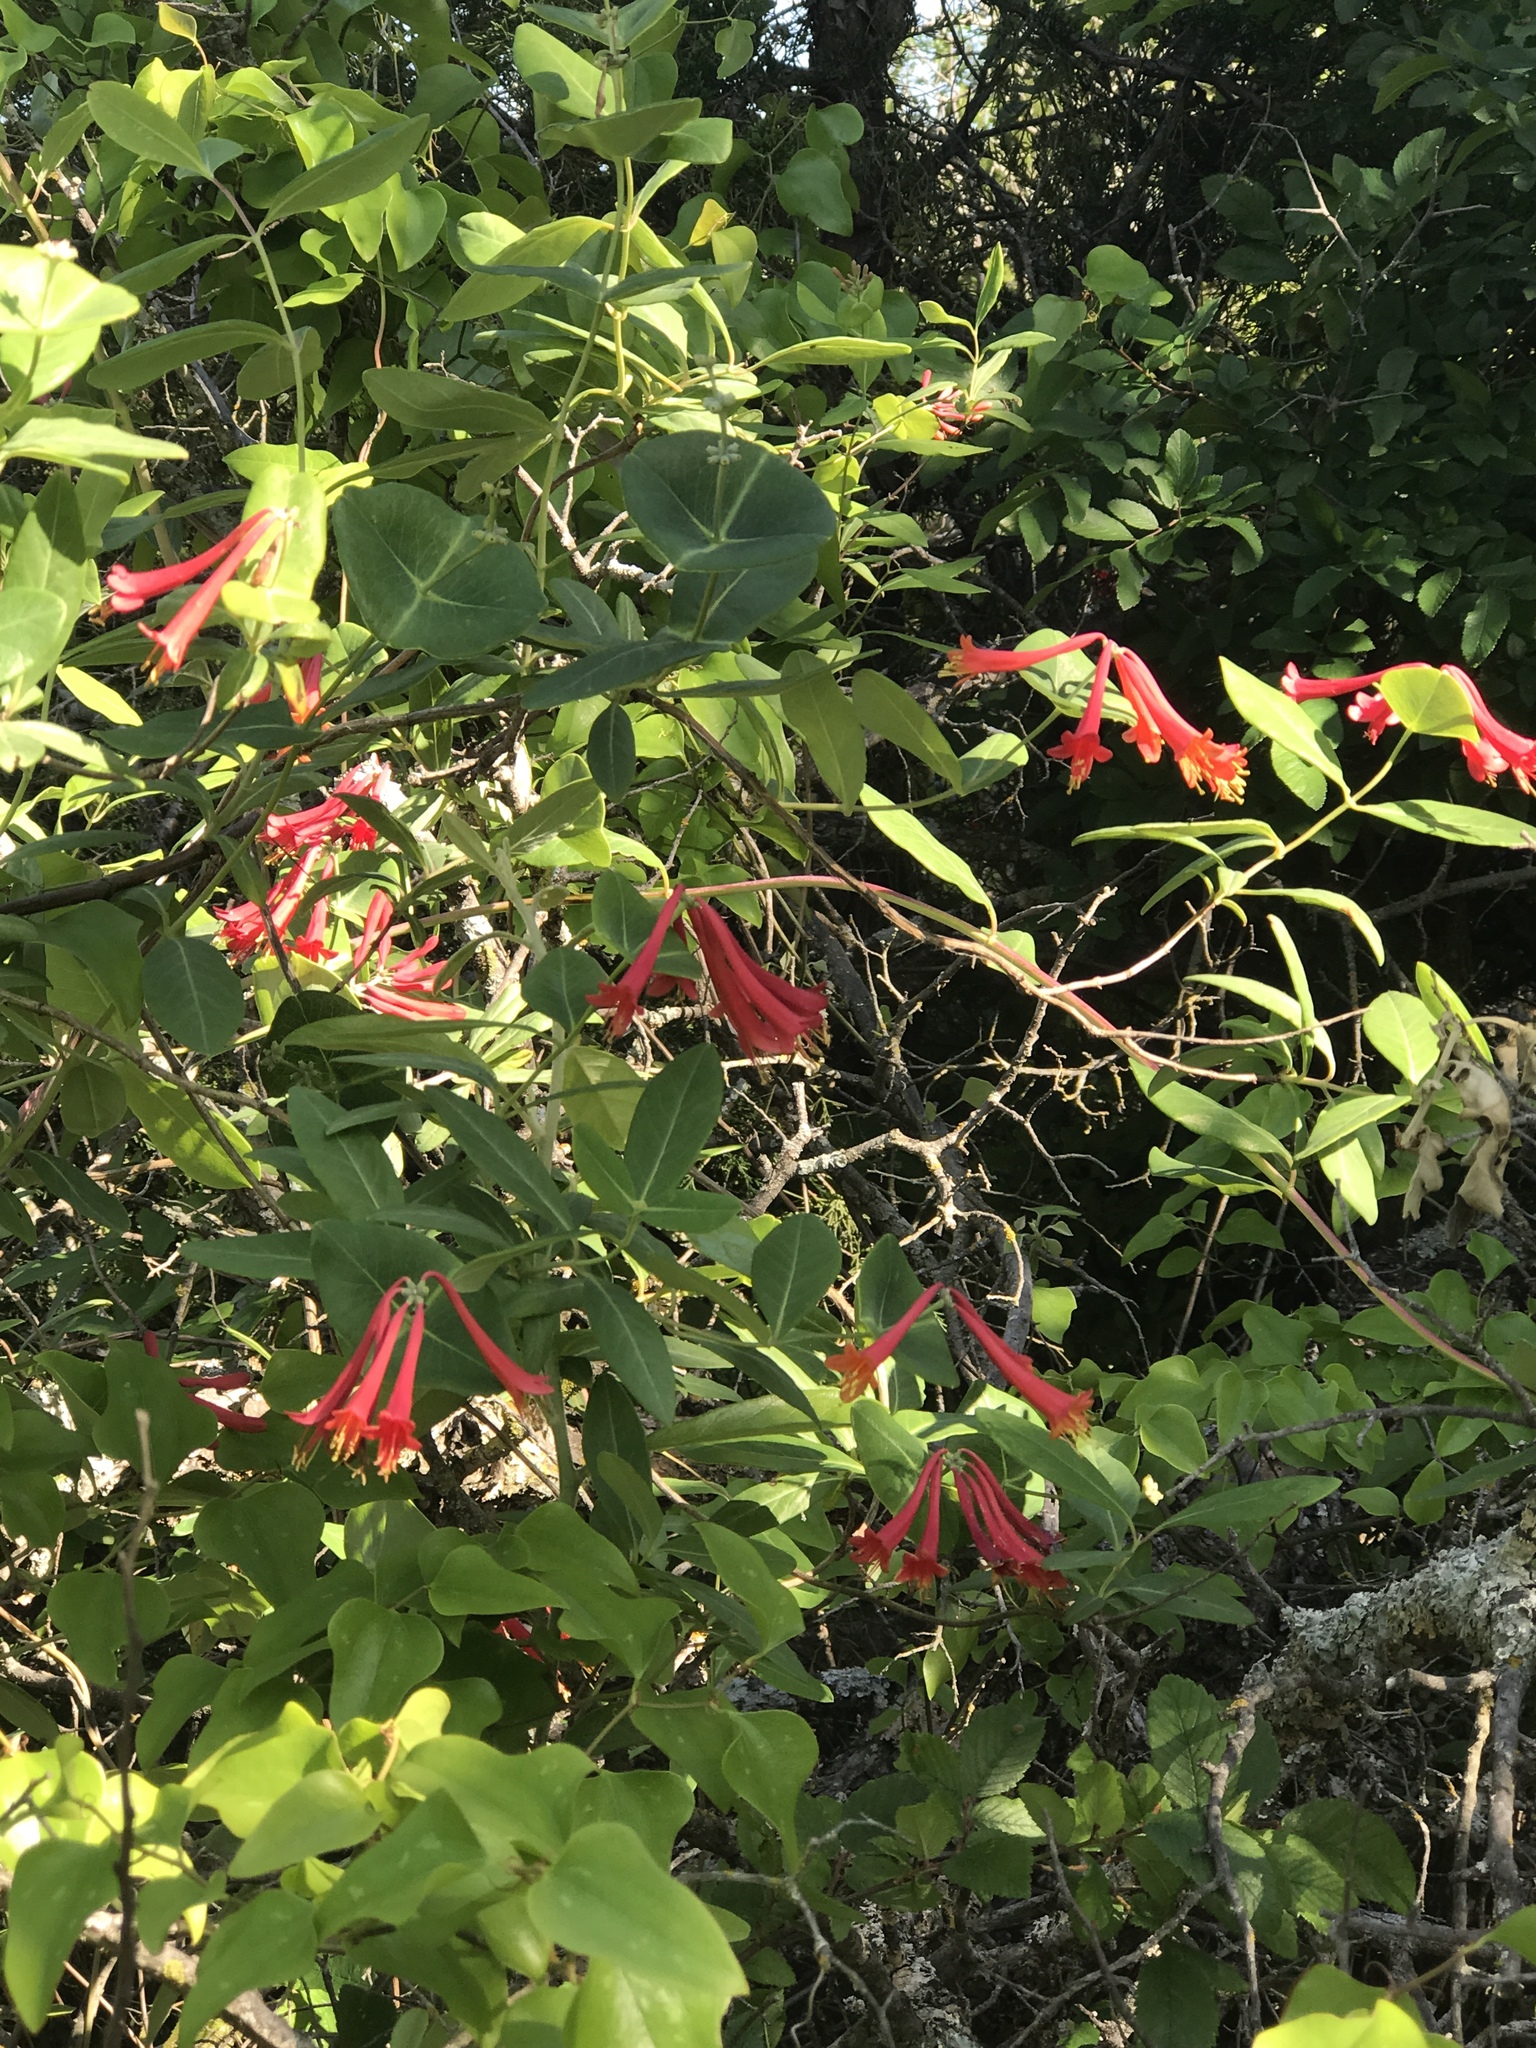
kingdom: Plantae
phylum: Tracheophyta
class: Magnoliopsida
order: Dipsacales
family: Caprifoliaceae
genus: Lonicera
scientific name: Lonicera sempervirens
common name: Coral honeysuckle
